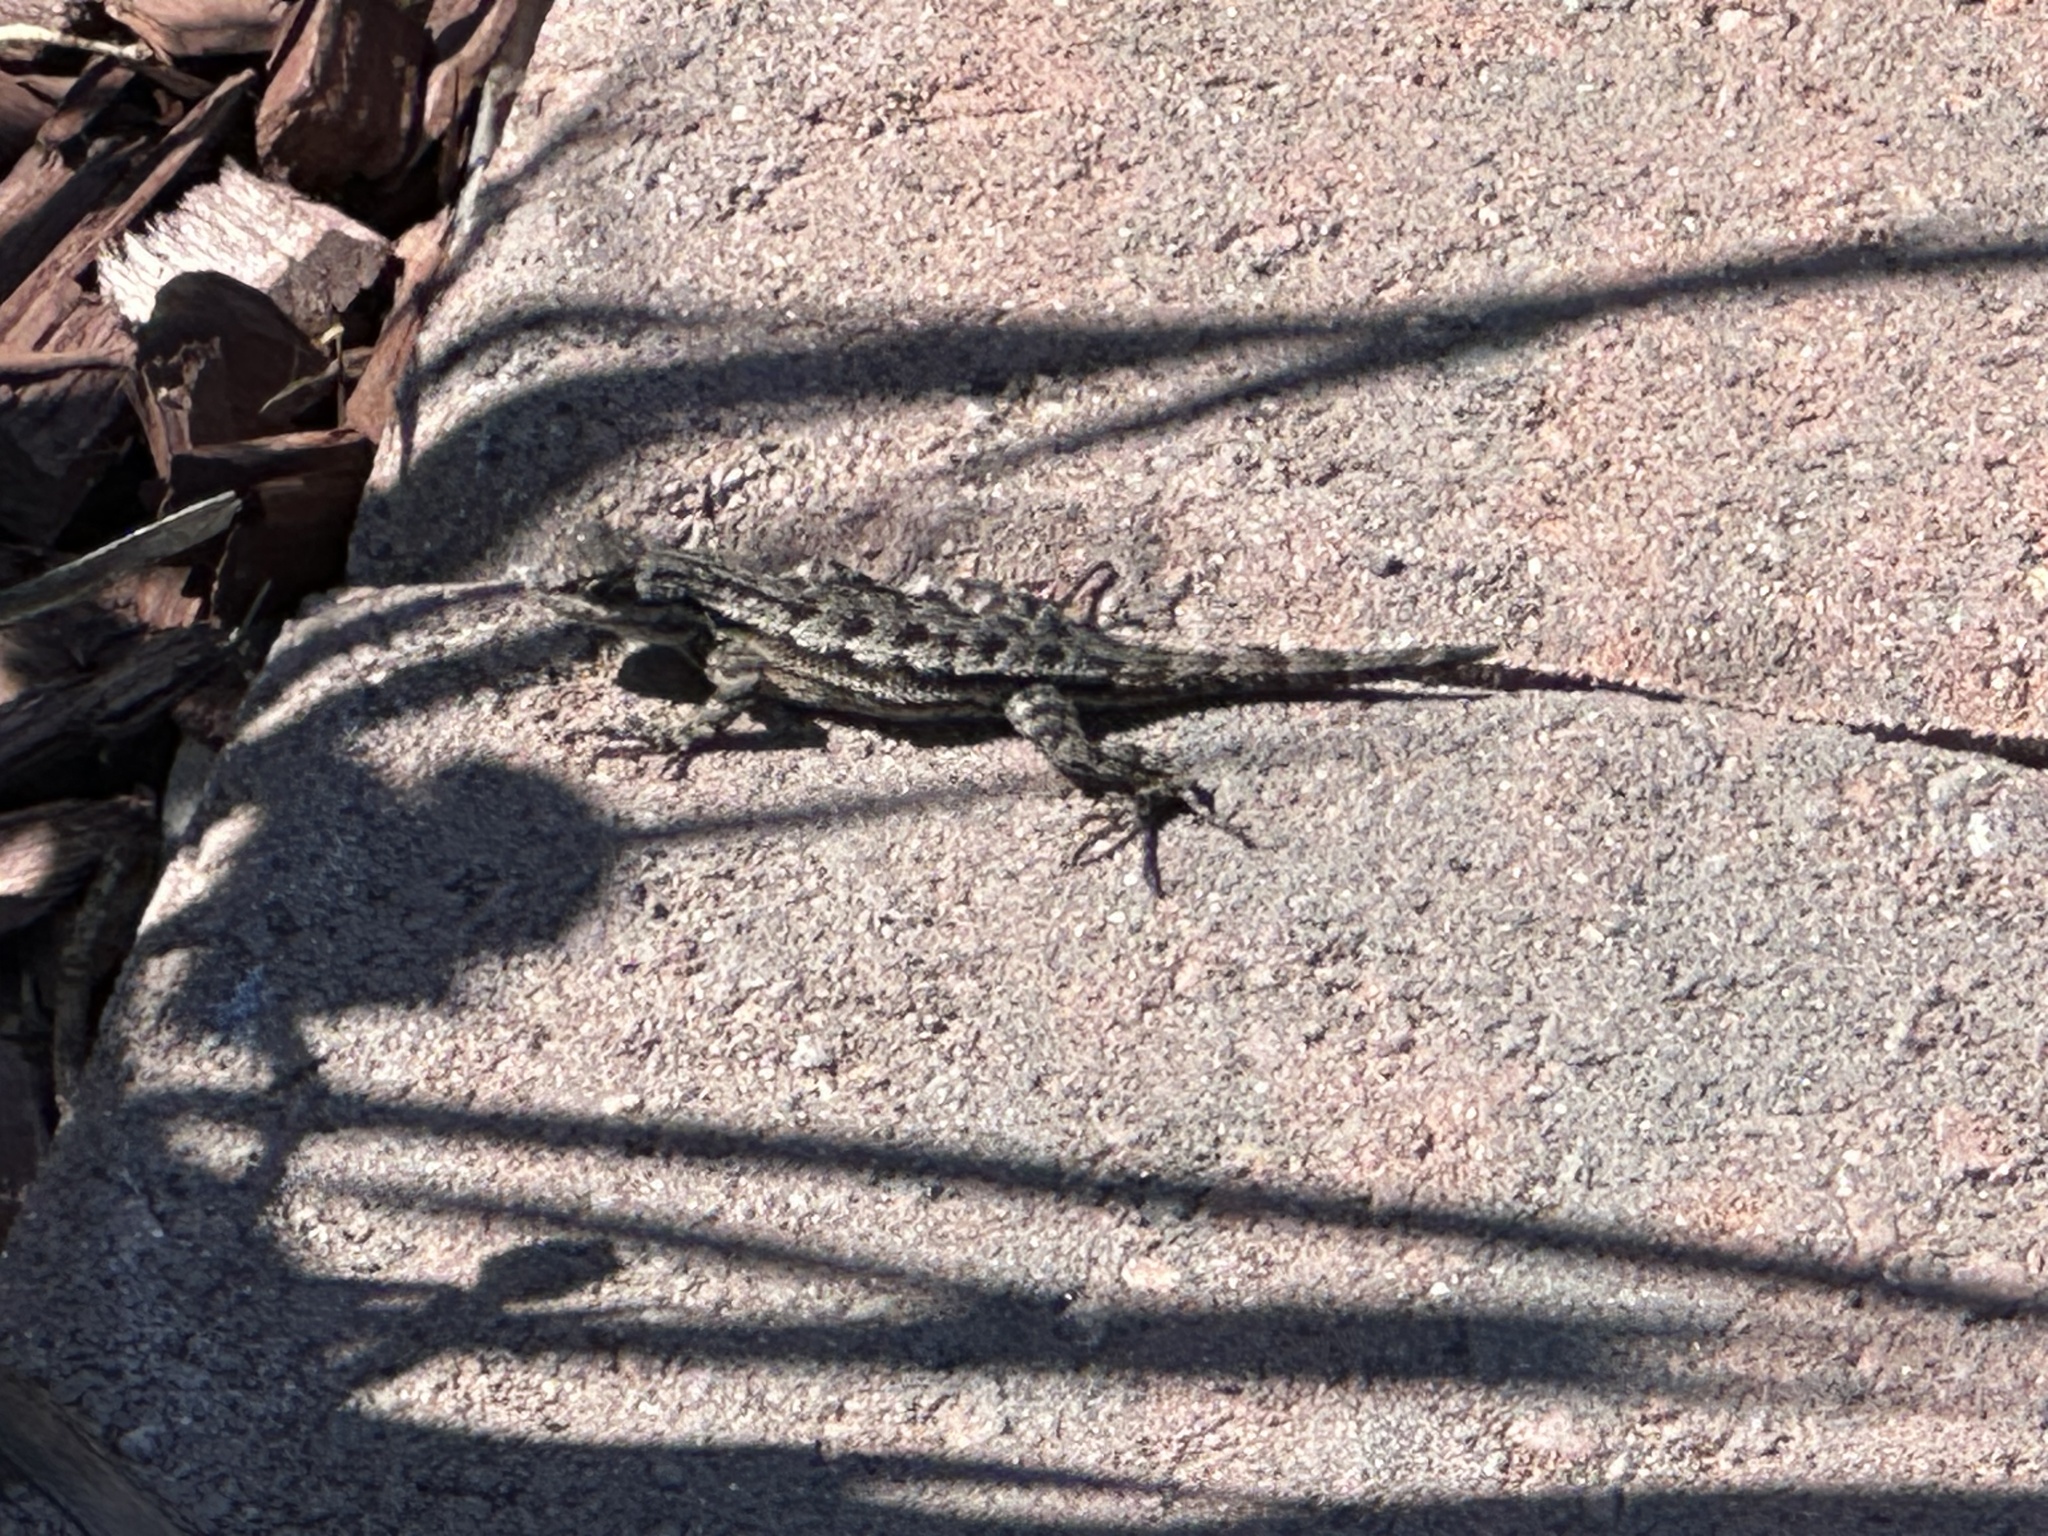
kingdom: Animalia
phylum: Chordata
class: Squamata
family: Phrynosomatidae
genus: Sceloporus
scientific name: Sceloporus occidentalis
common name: Western fence lizard
